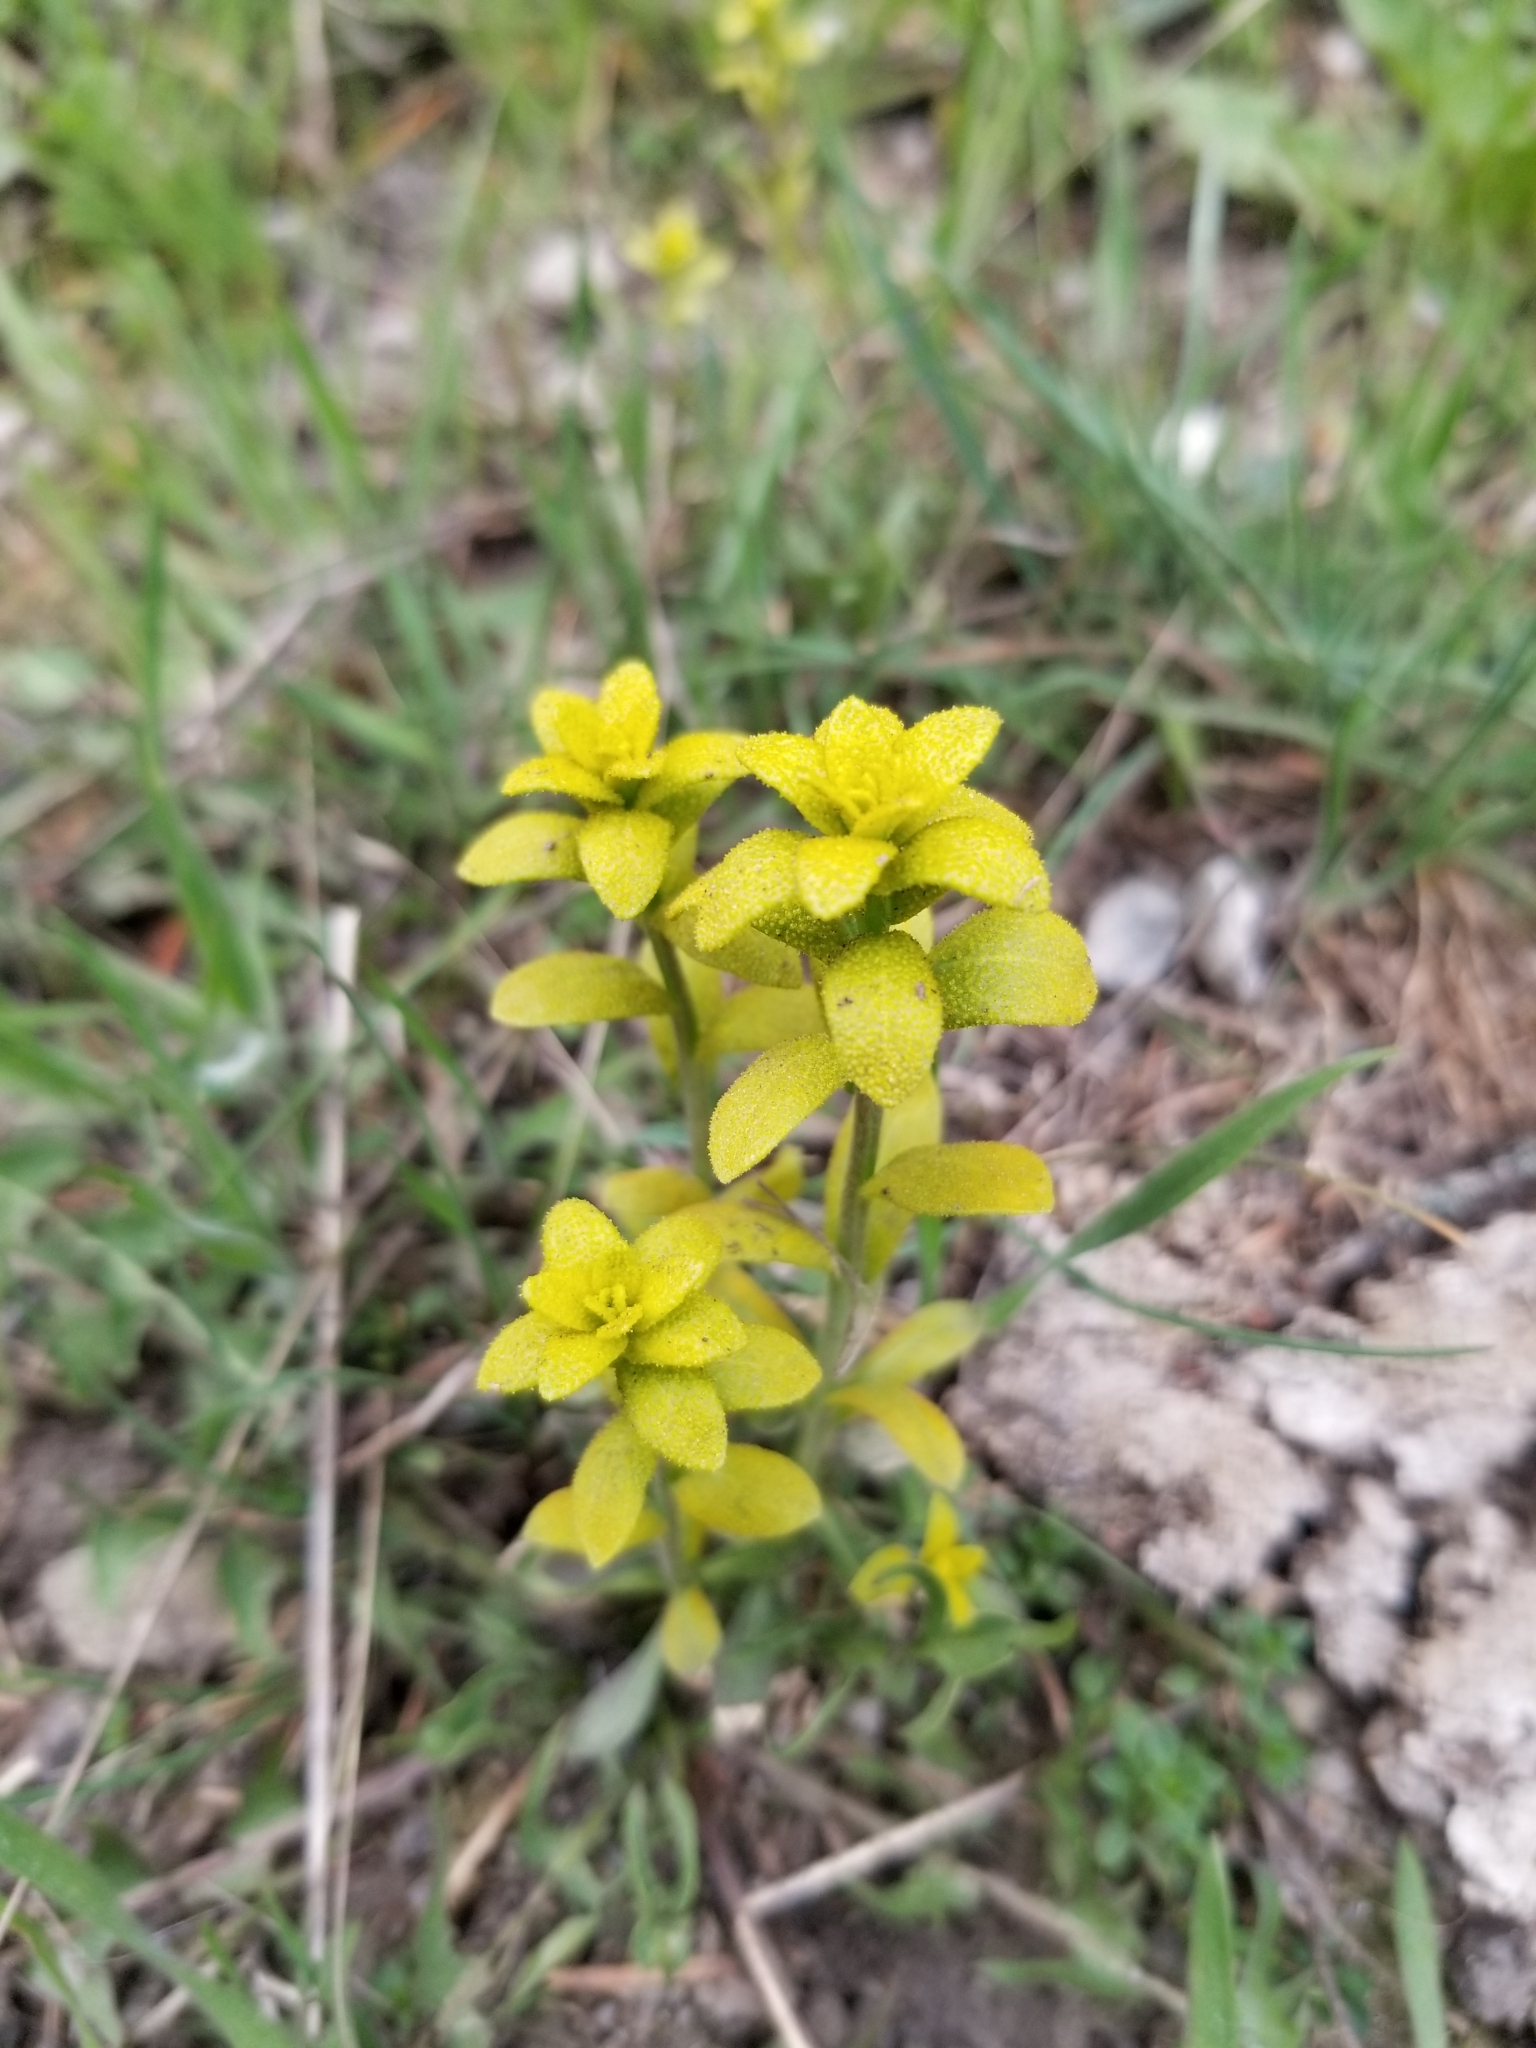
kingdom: Fungi
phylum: Basidiomycota
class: Pucciniomycetes
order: Pucciniales
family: Pucciniaceae
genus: Puccinia
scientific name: Puccinia monoica
